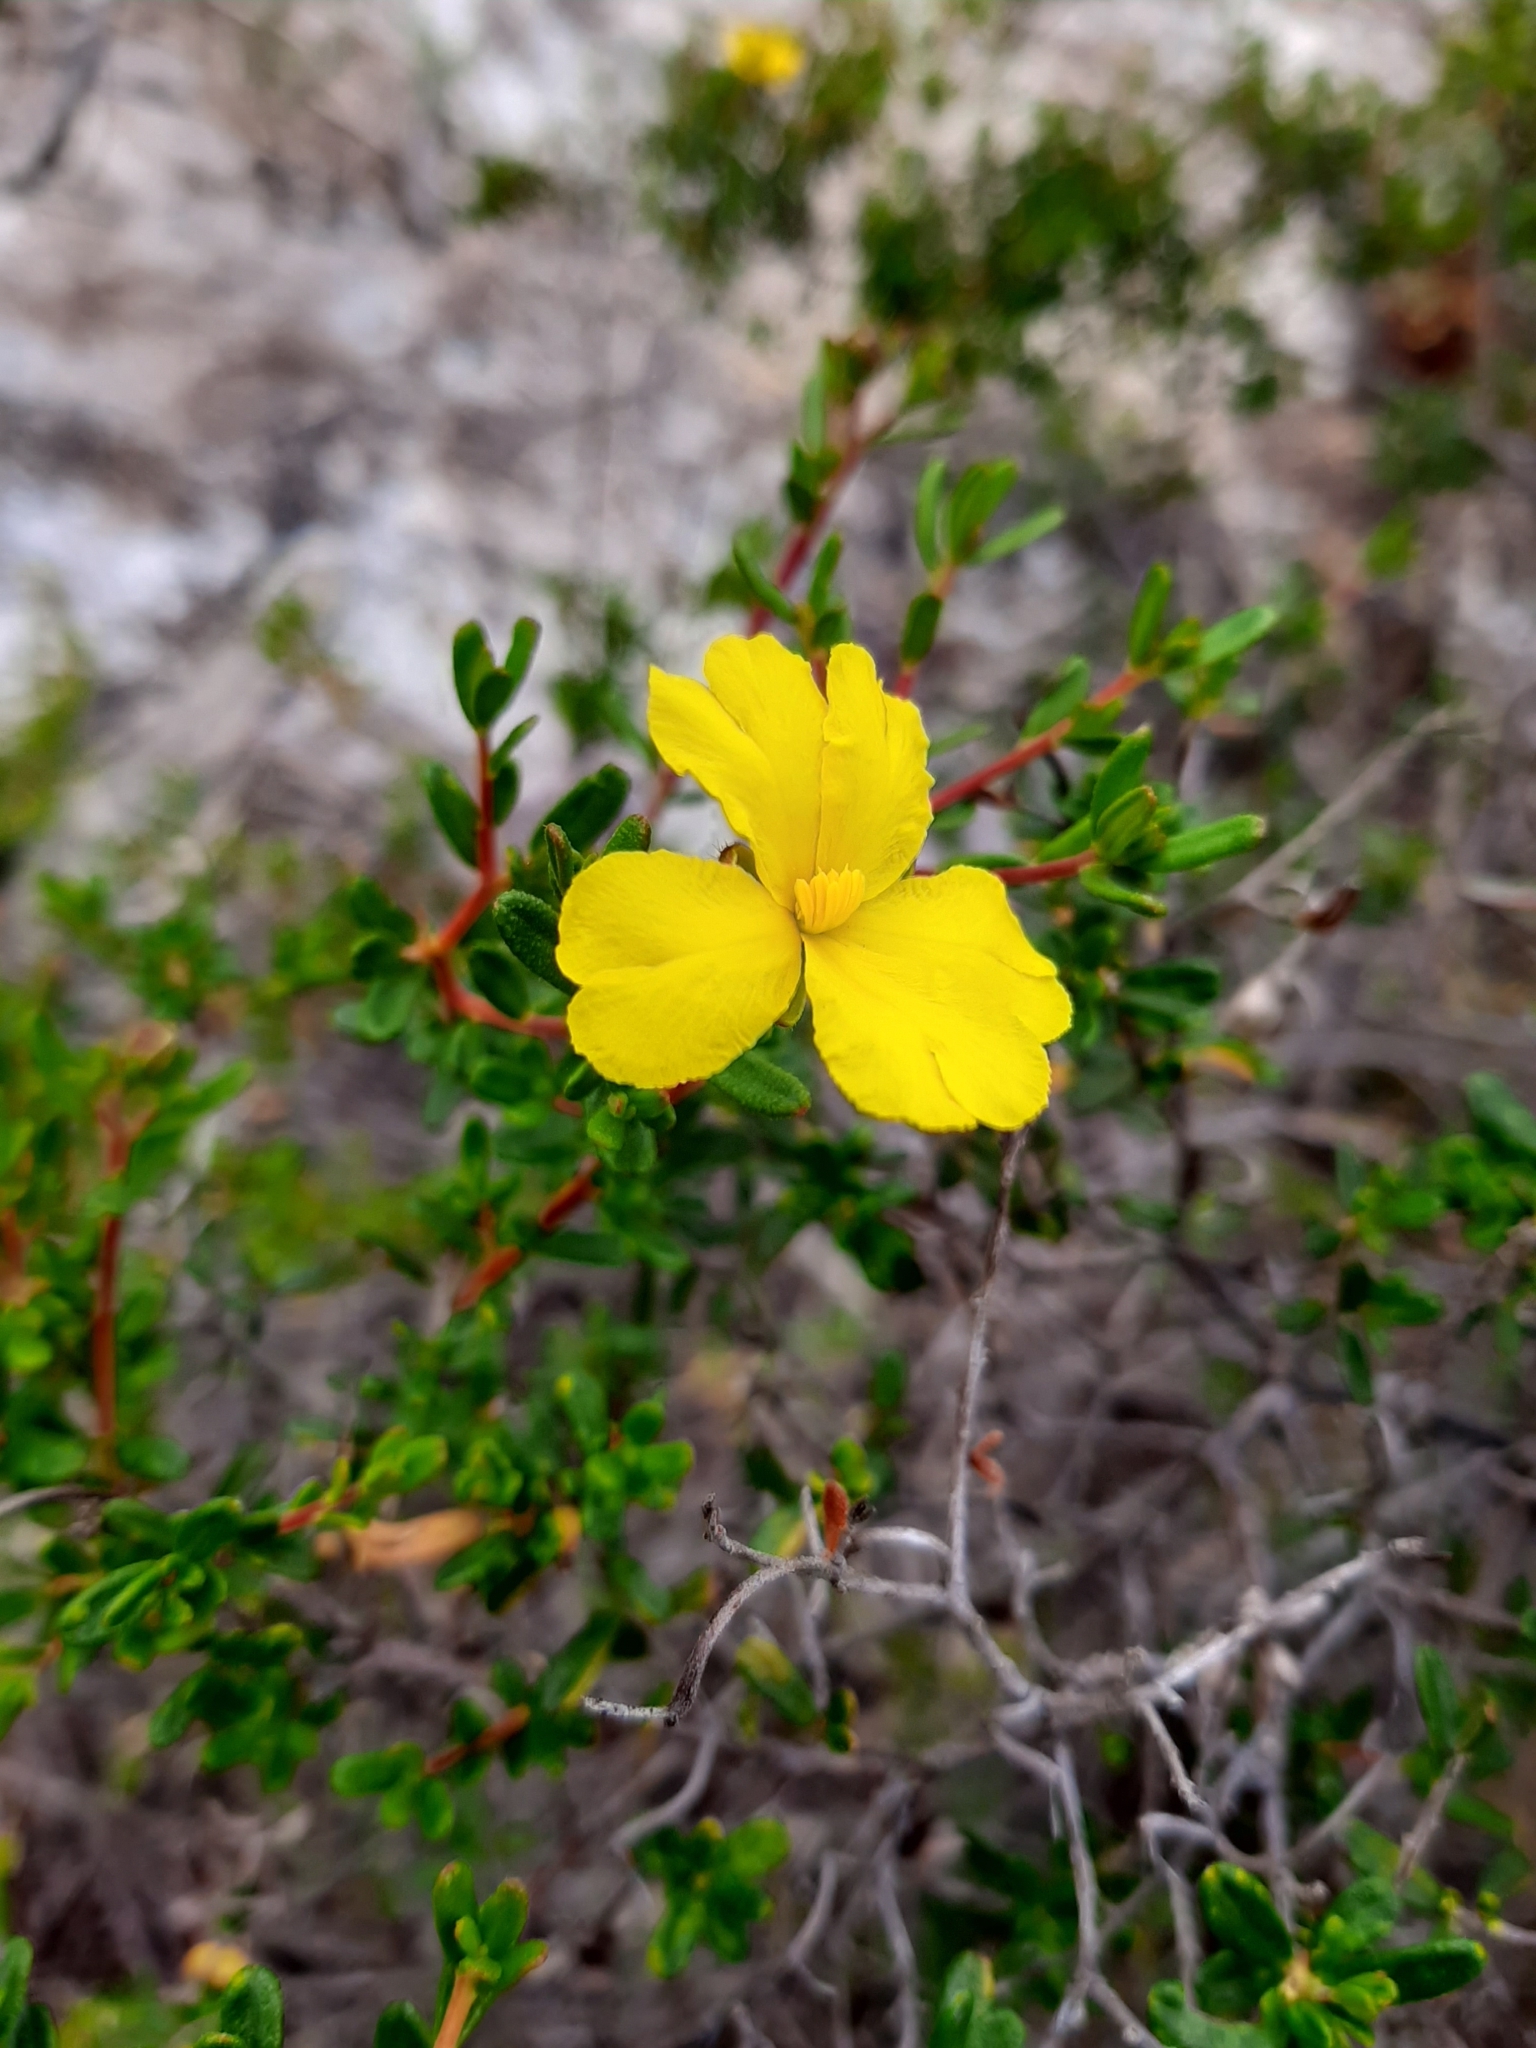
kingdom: Plantae
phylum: Tracheophyta
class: Magnoliopsida
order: Dilleniales
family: Dilleniaceae
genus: Hibbertia
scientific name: Hibbertia hypericoides
